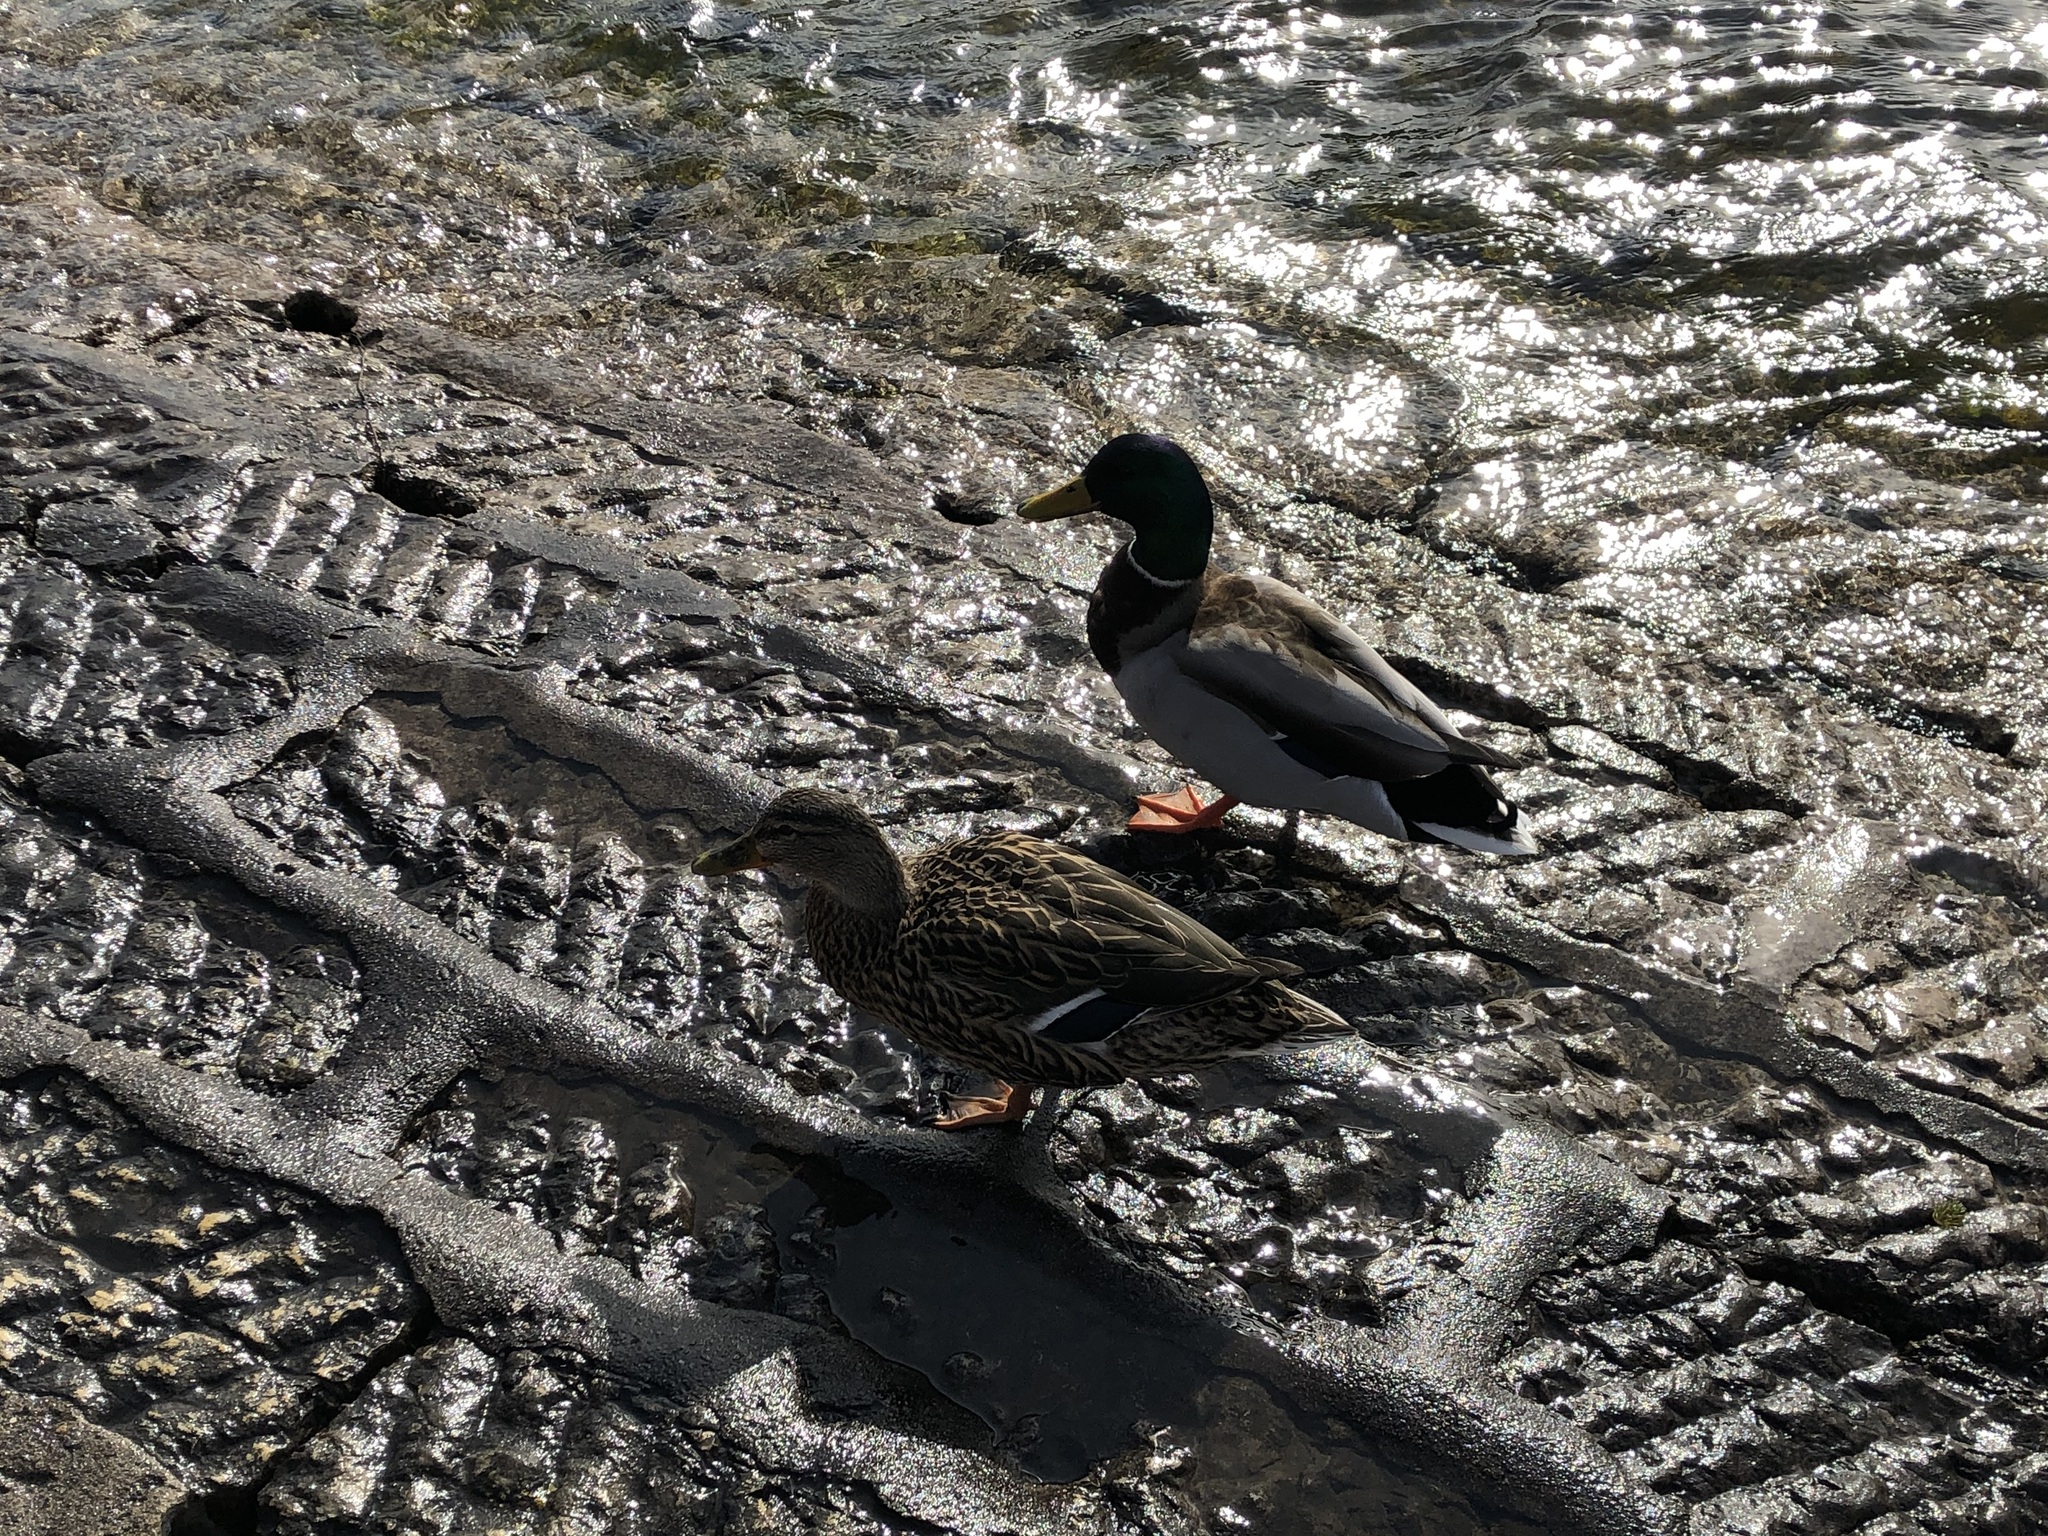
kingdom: Animalia
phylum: Chordata
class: Aves
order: Anseriformes
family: Anatidae
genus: Anas
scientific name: Anas platyrhynchos
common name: Mallard
